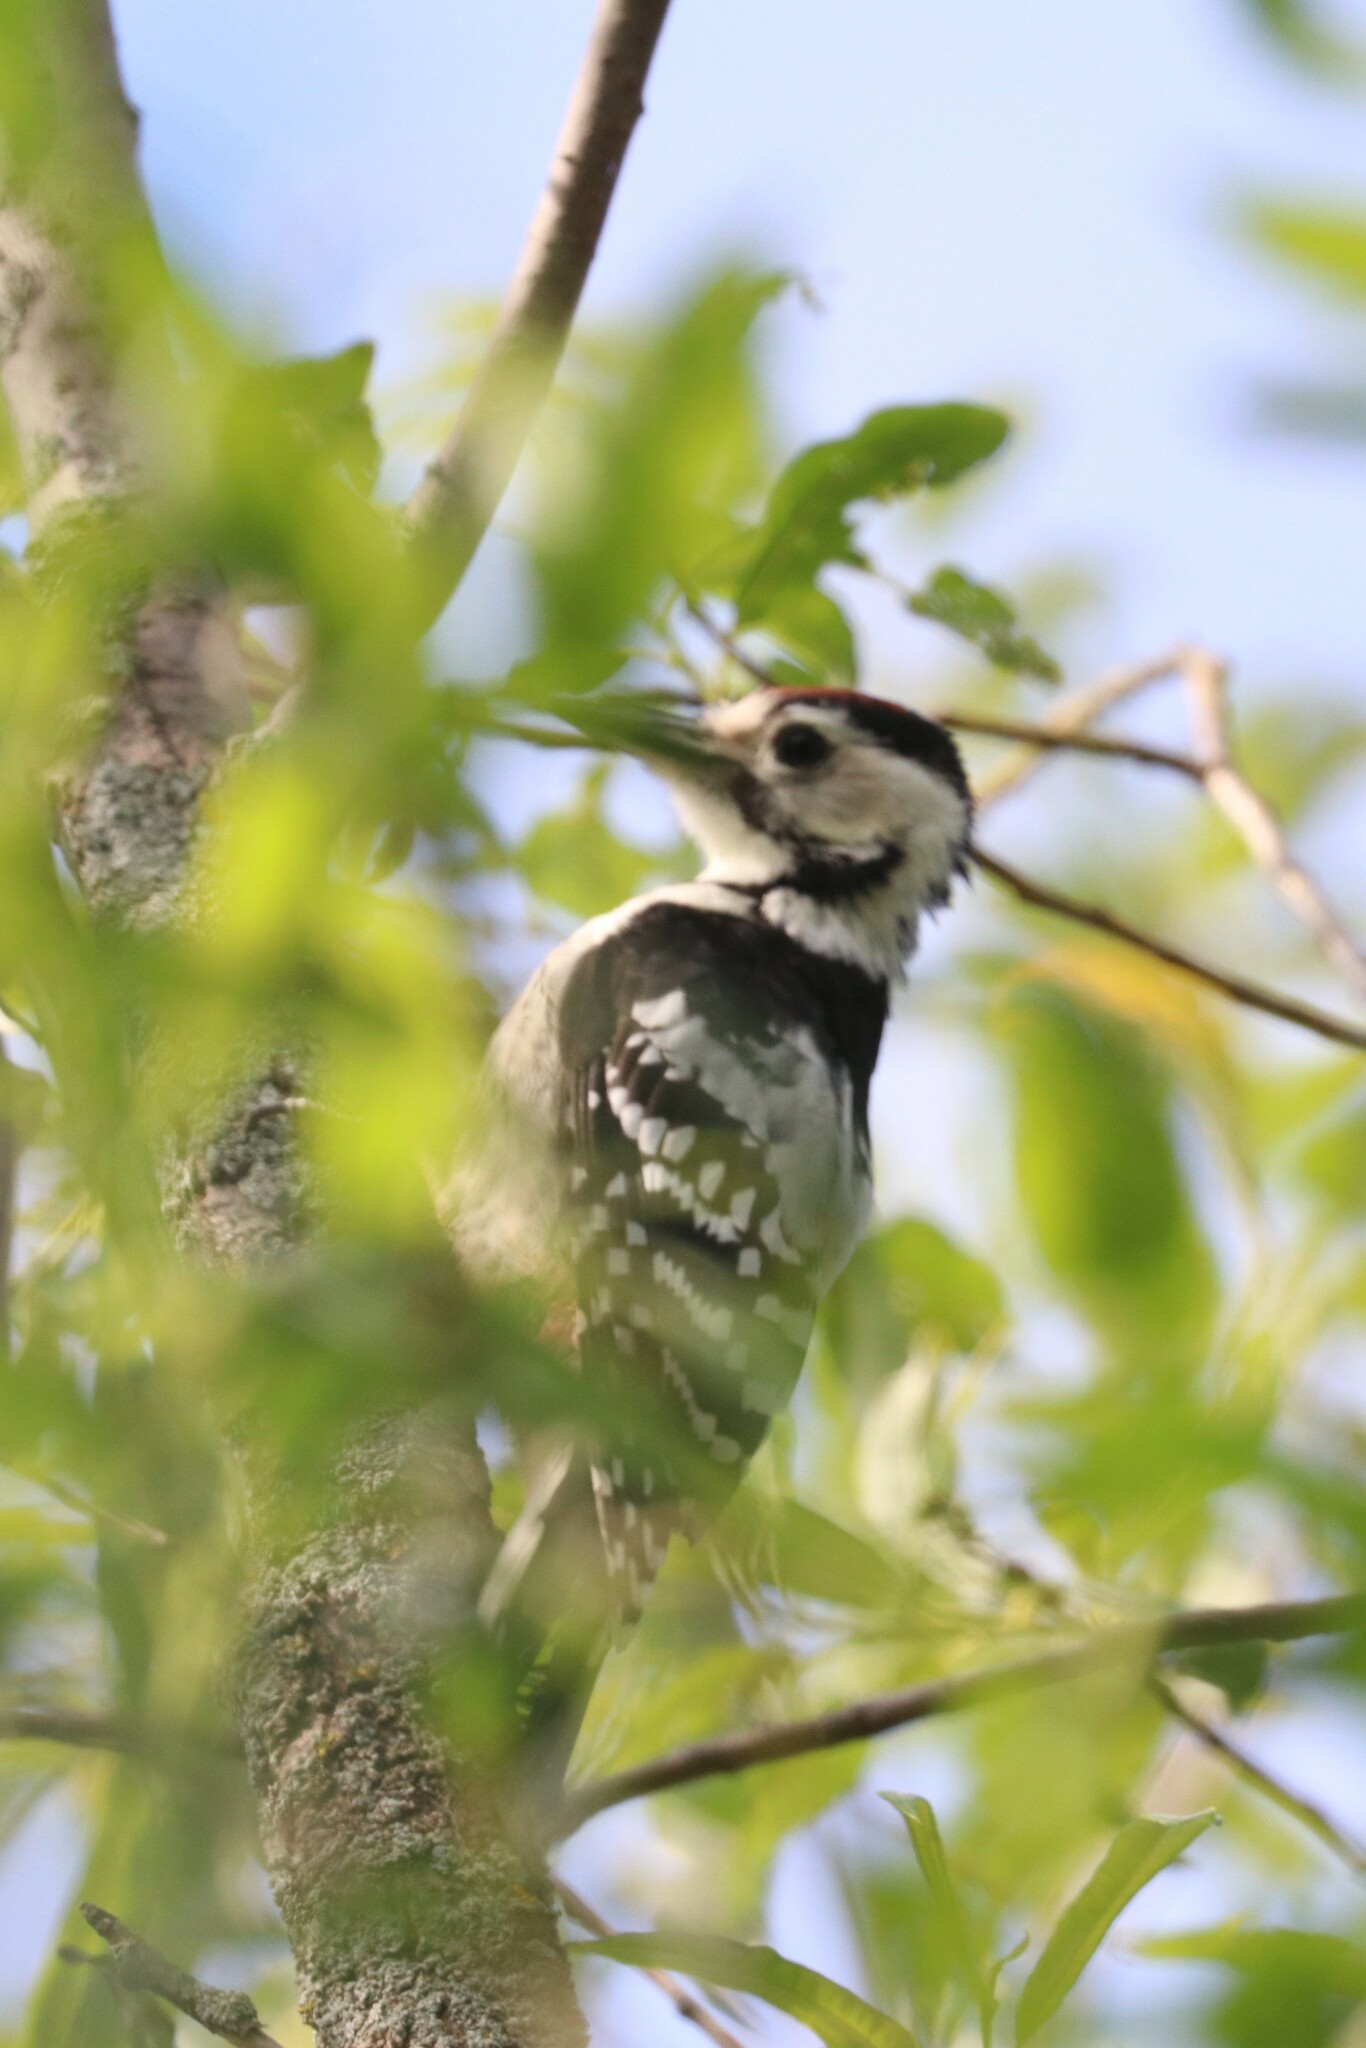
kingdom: Animalia
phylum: Chordata
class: Aves
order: Piciformes
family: Picidae
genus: Dendrocopos
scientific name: Dendrocopos leucotos
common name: White-backed woodpecker
